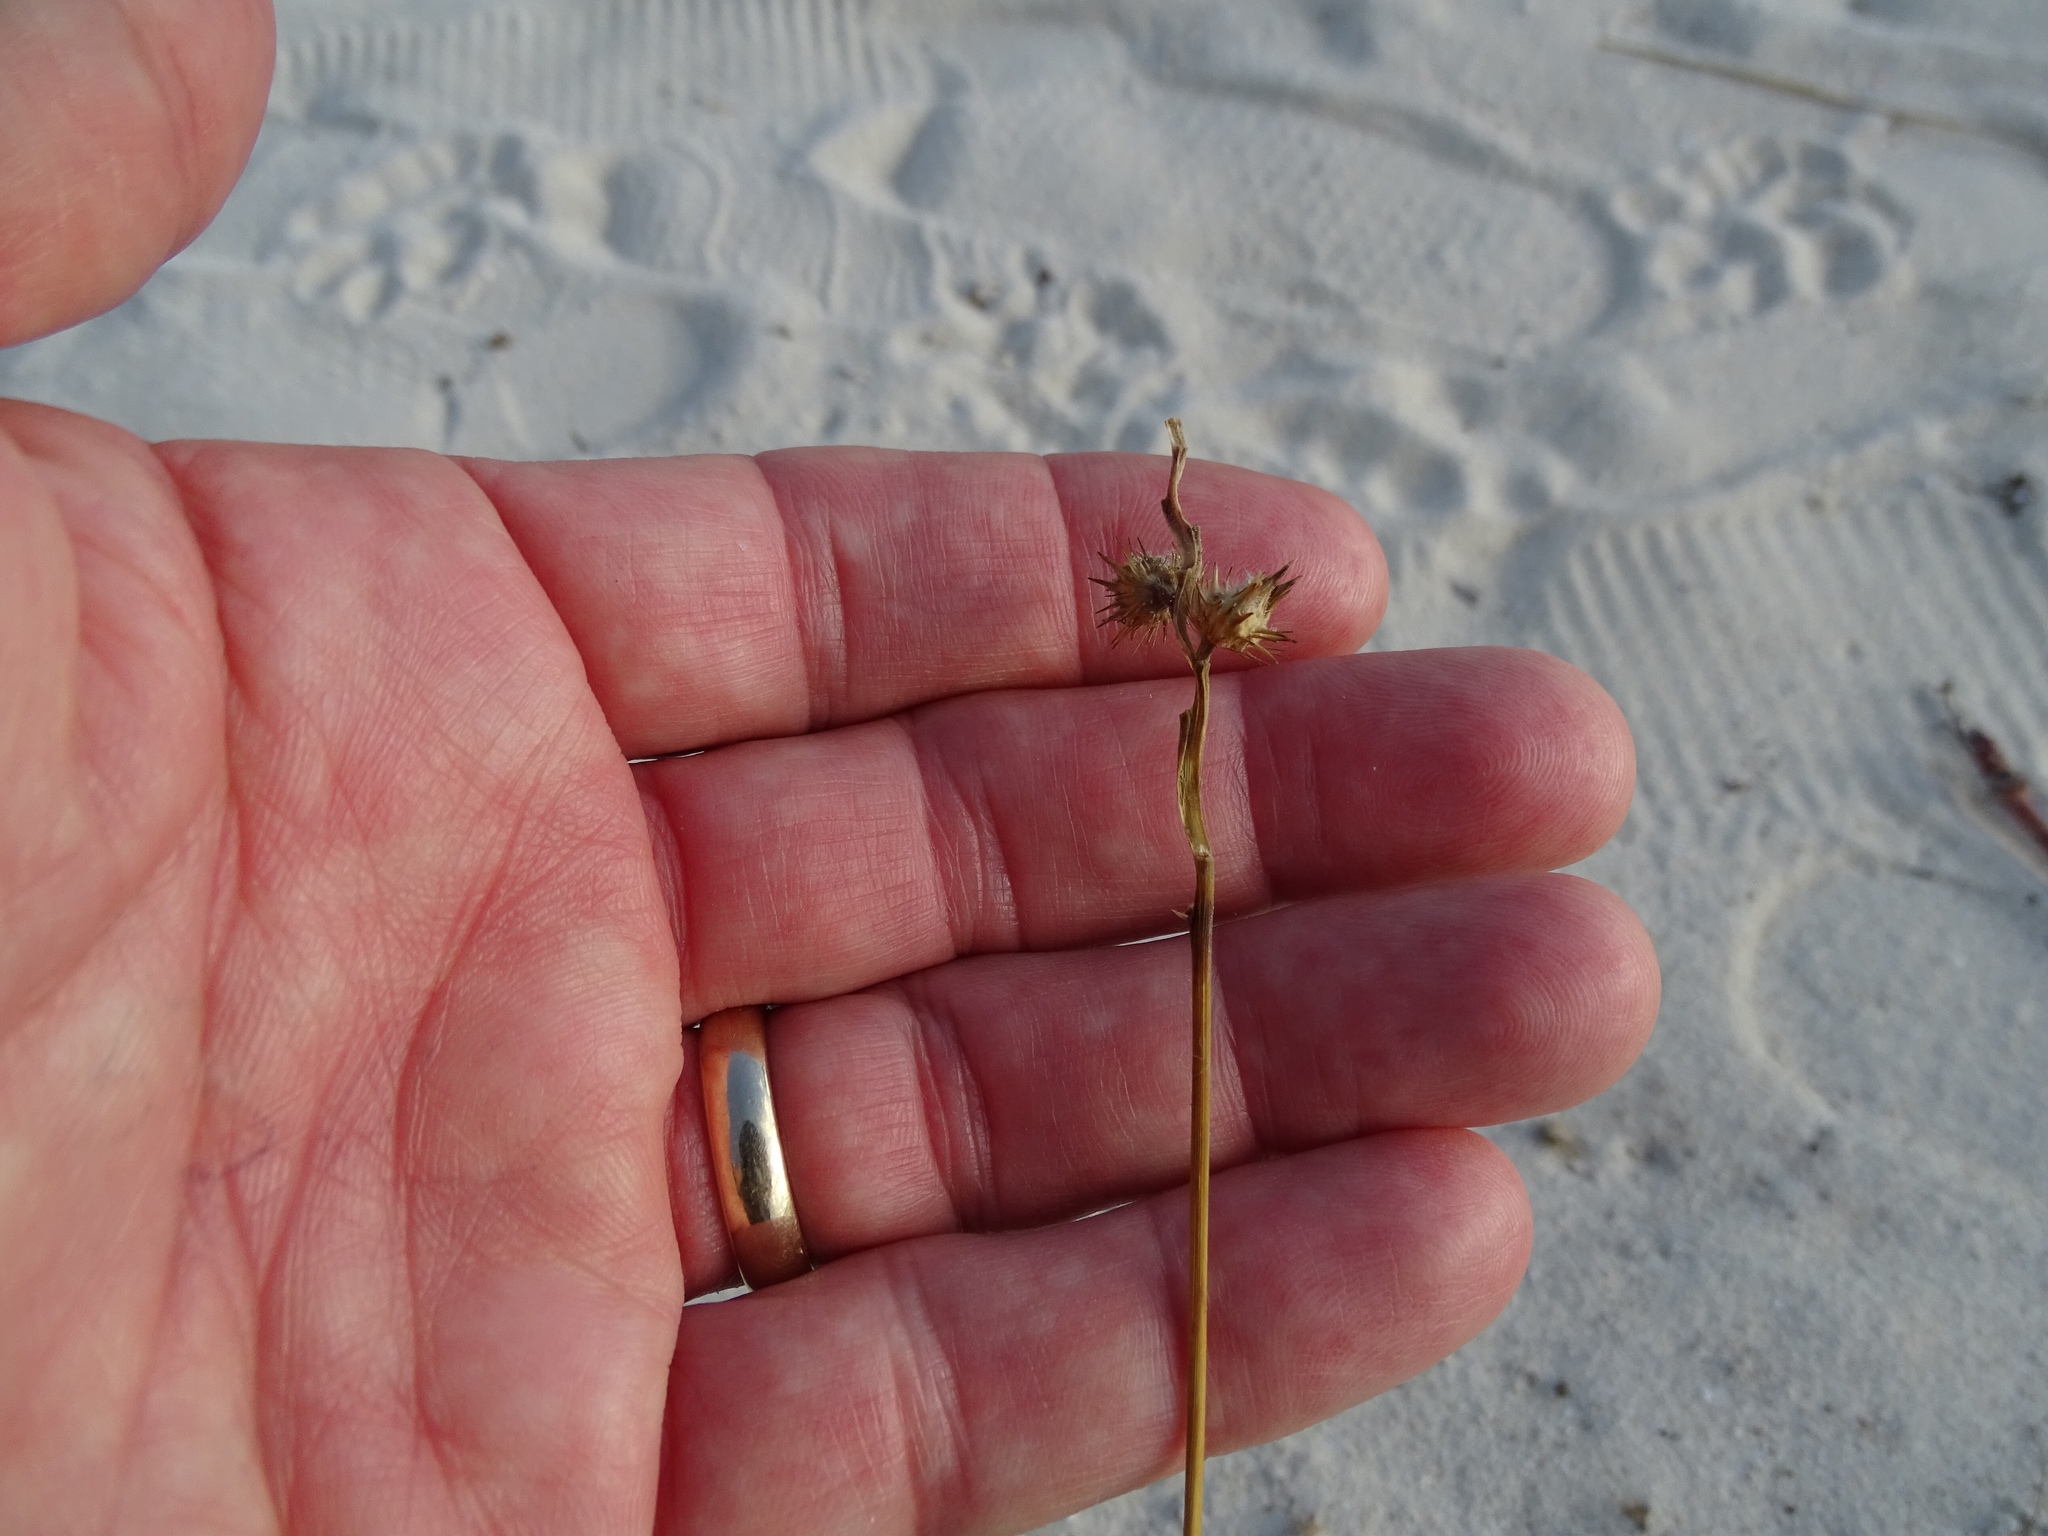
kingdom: Plantae
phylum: Tracheophyta
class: Liliopsida
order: Poales
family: Poaceae
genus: Cenchrus
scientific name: Cenchrus spinifex
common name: Coast sandbur
